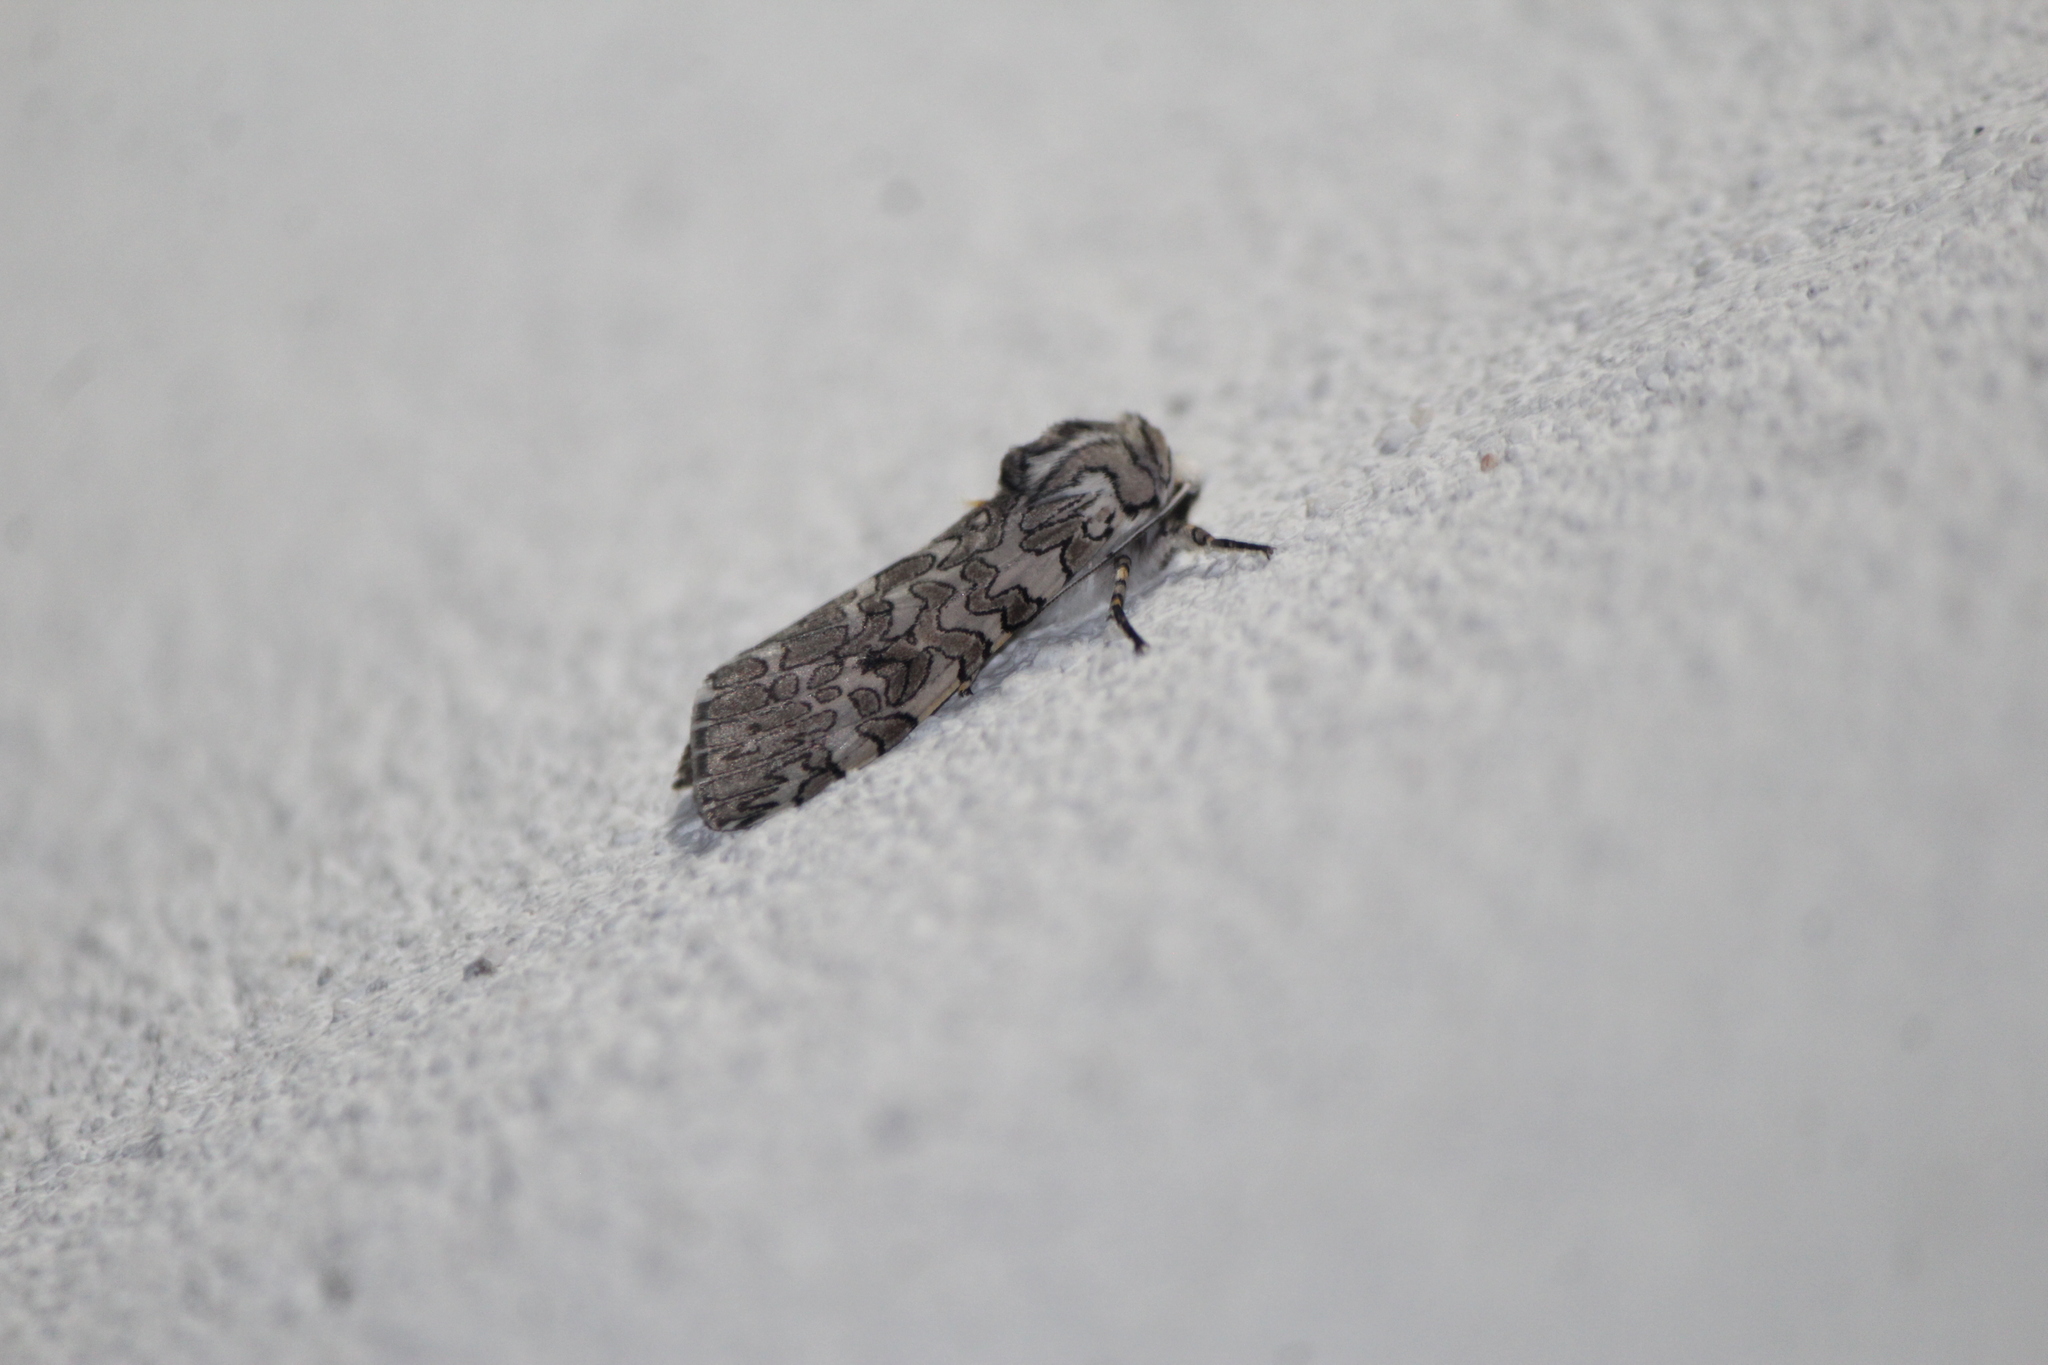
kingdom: Animalia
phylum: Arthropoda
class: Insecta
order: Lepidoptera
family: Erebidae
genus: Hypercompe
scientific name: Hypercompe suffusa
